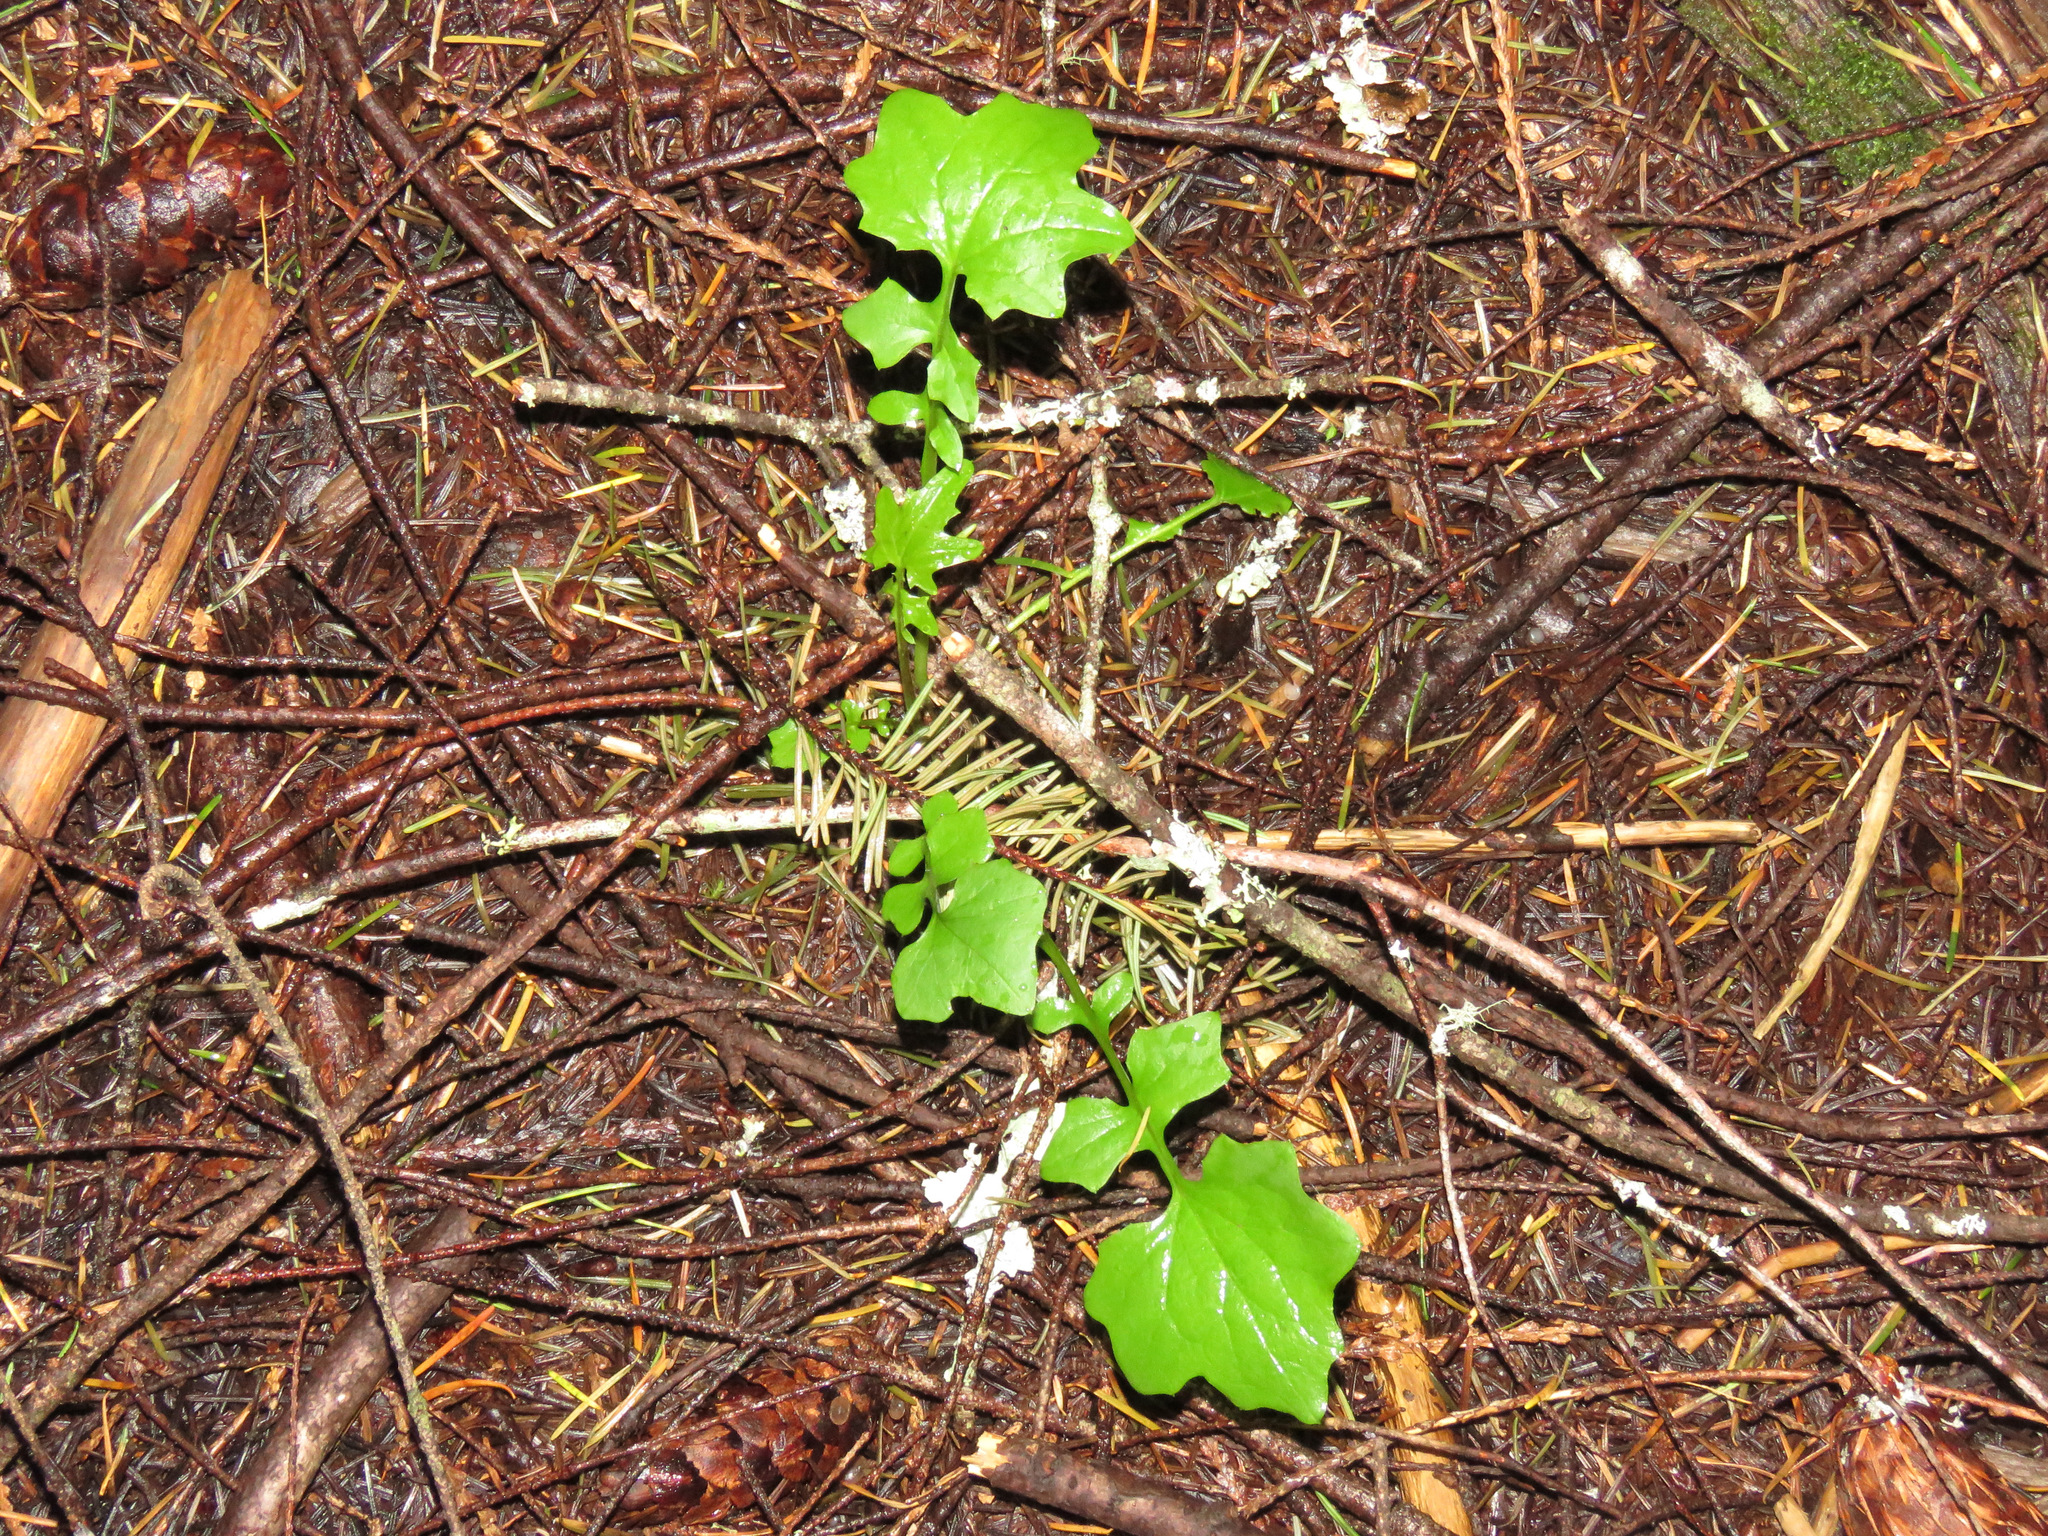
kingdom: Plantae
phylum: Tracheophyta
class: Magnoliopsida
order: Asterales
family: Asteraceae
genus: Mycelis
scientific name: Mycelis muralis
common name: Wall lettuce
